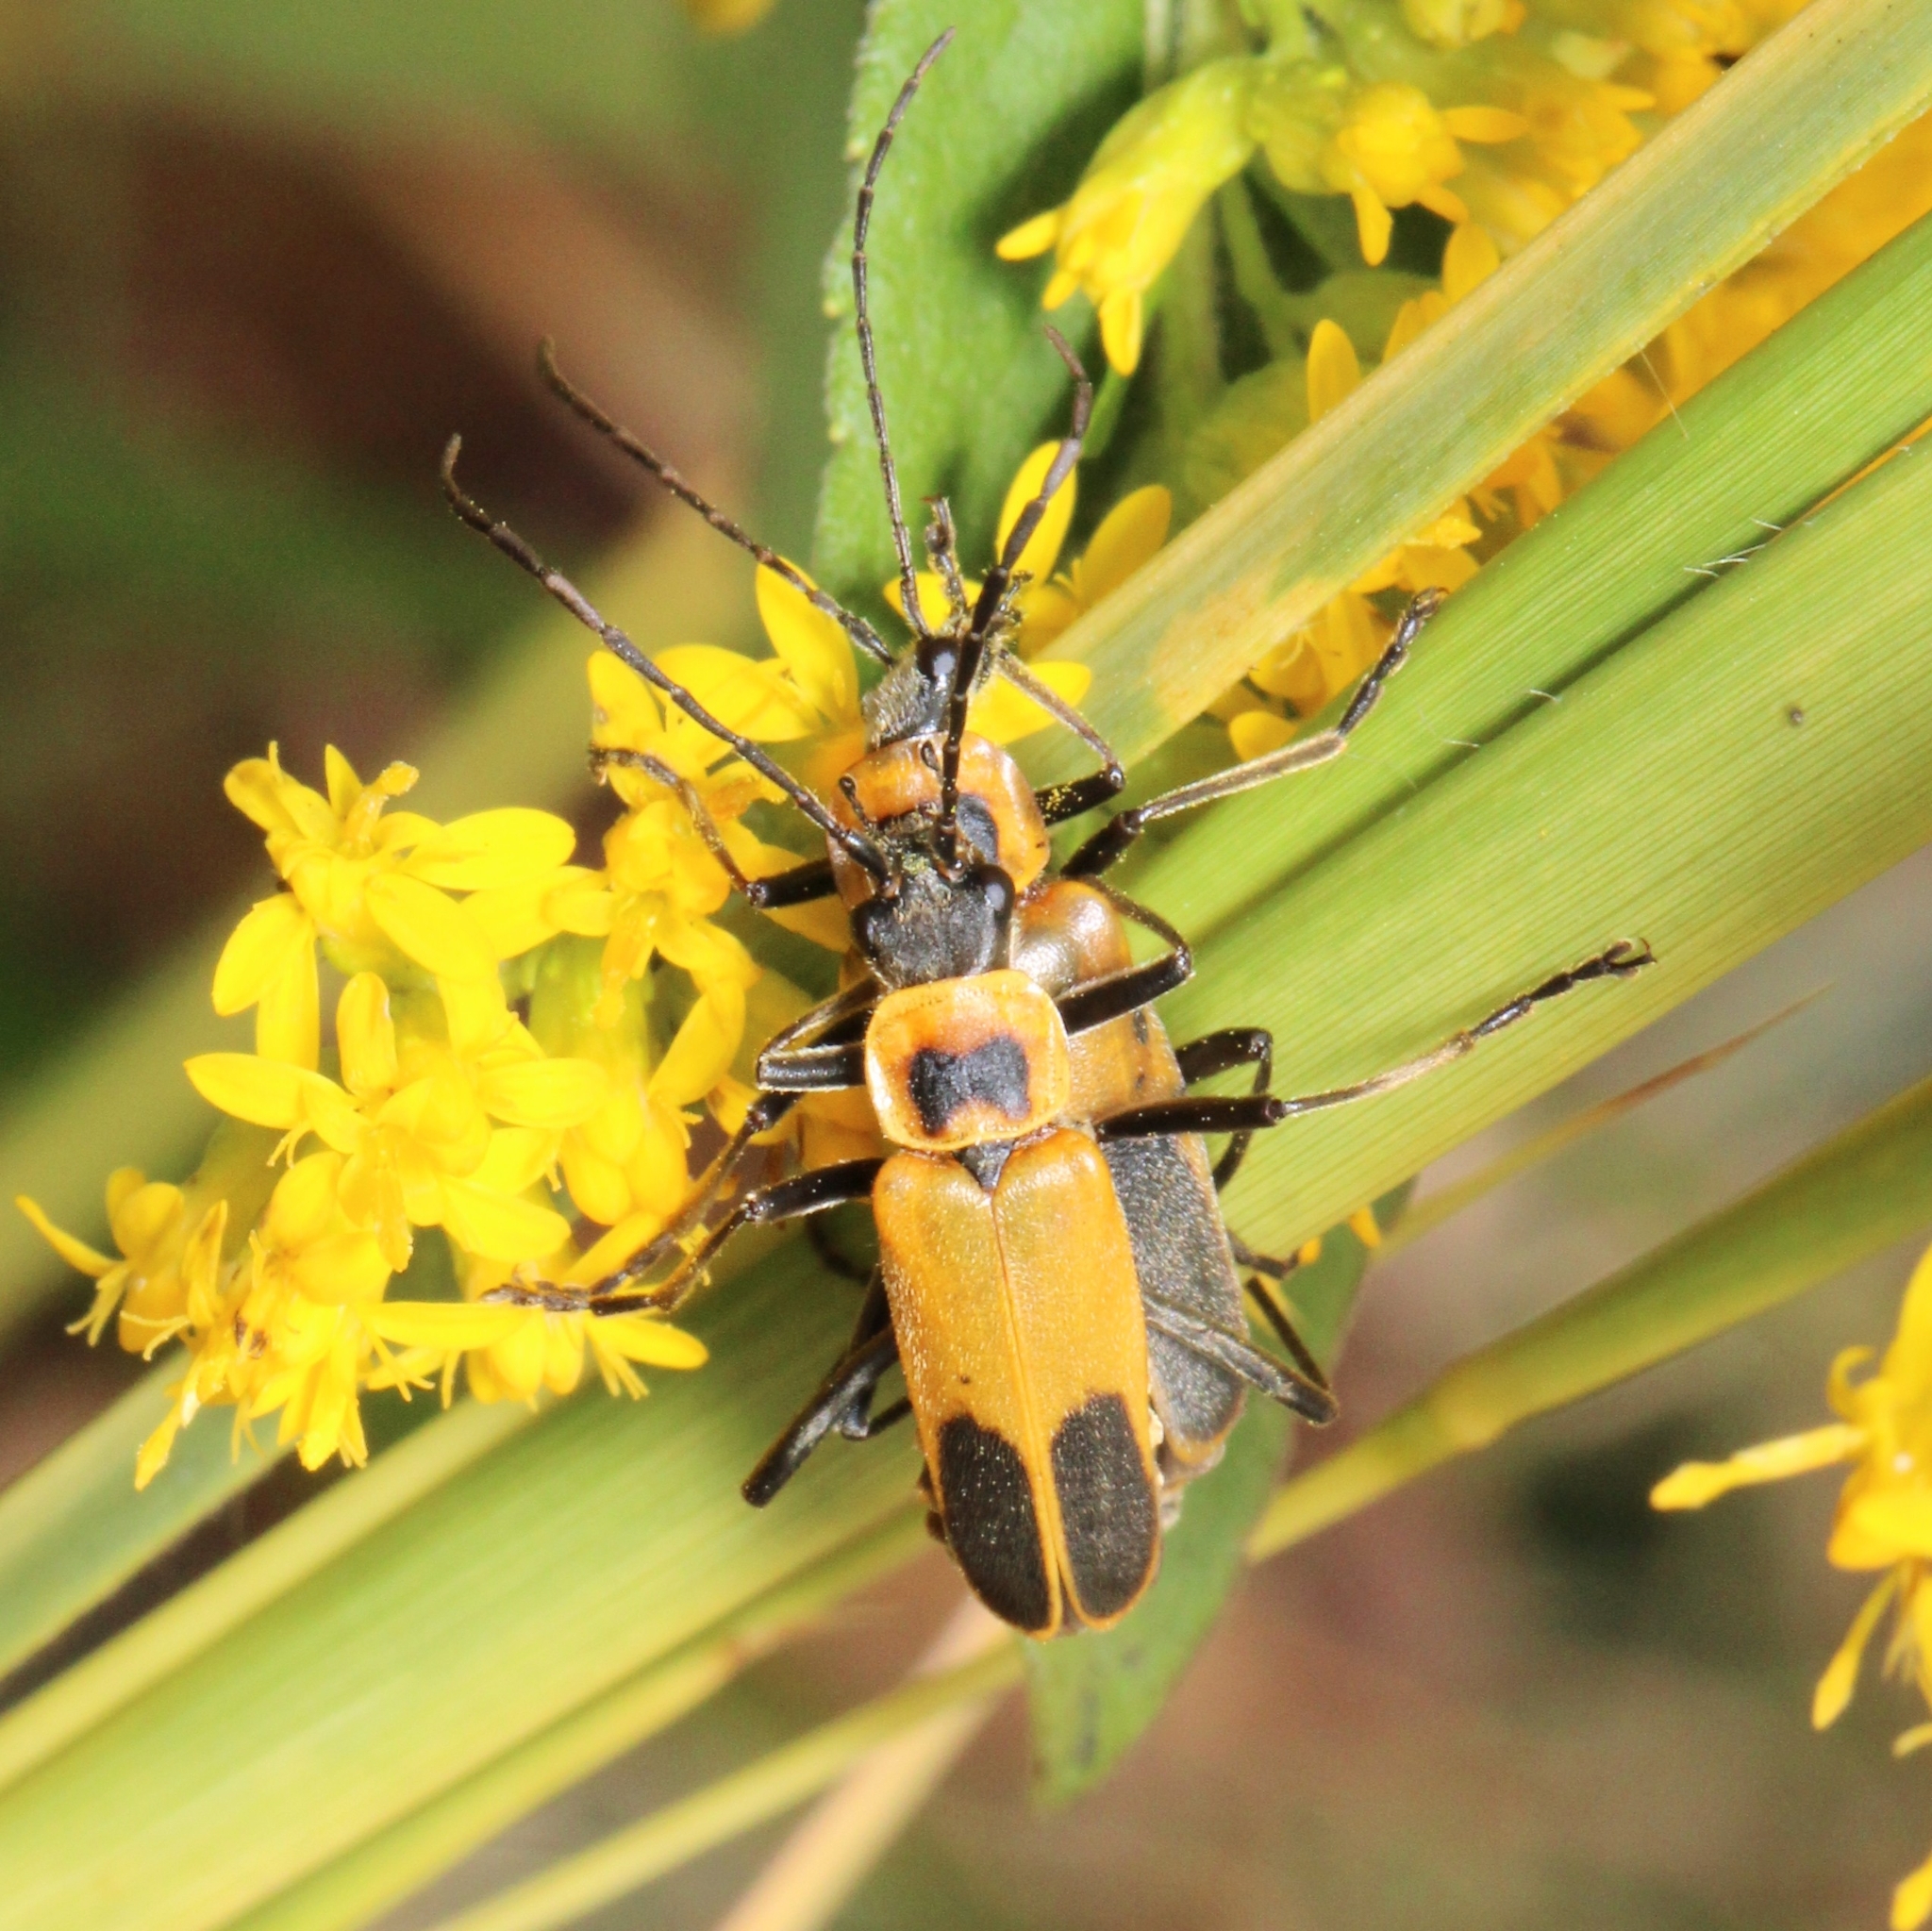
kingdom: Animalia
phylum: Arthropoda
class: Insecta
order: Coleoptera
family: Cantharidae
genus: Chauliognathus
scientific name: Chauliognathus pensylvanicus
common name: Goldenrod soldier beetle
